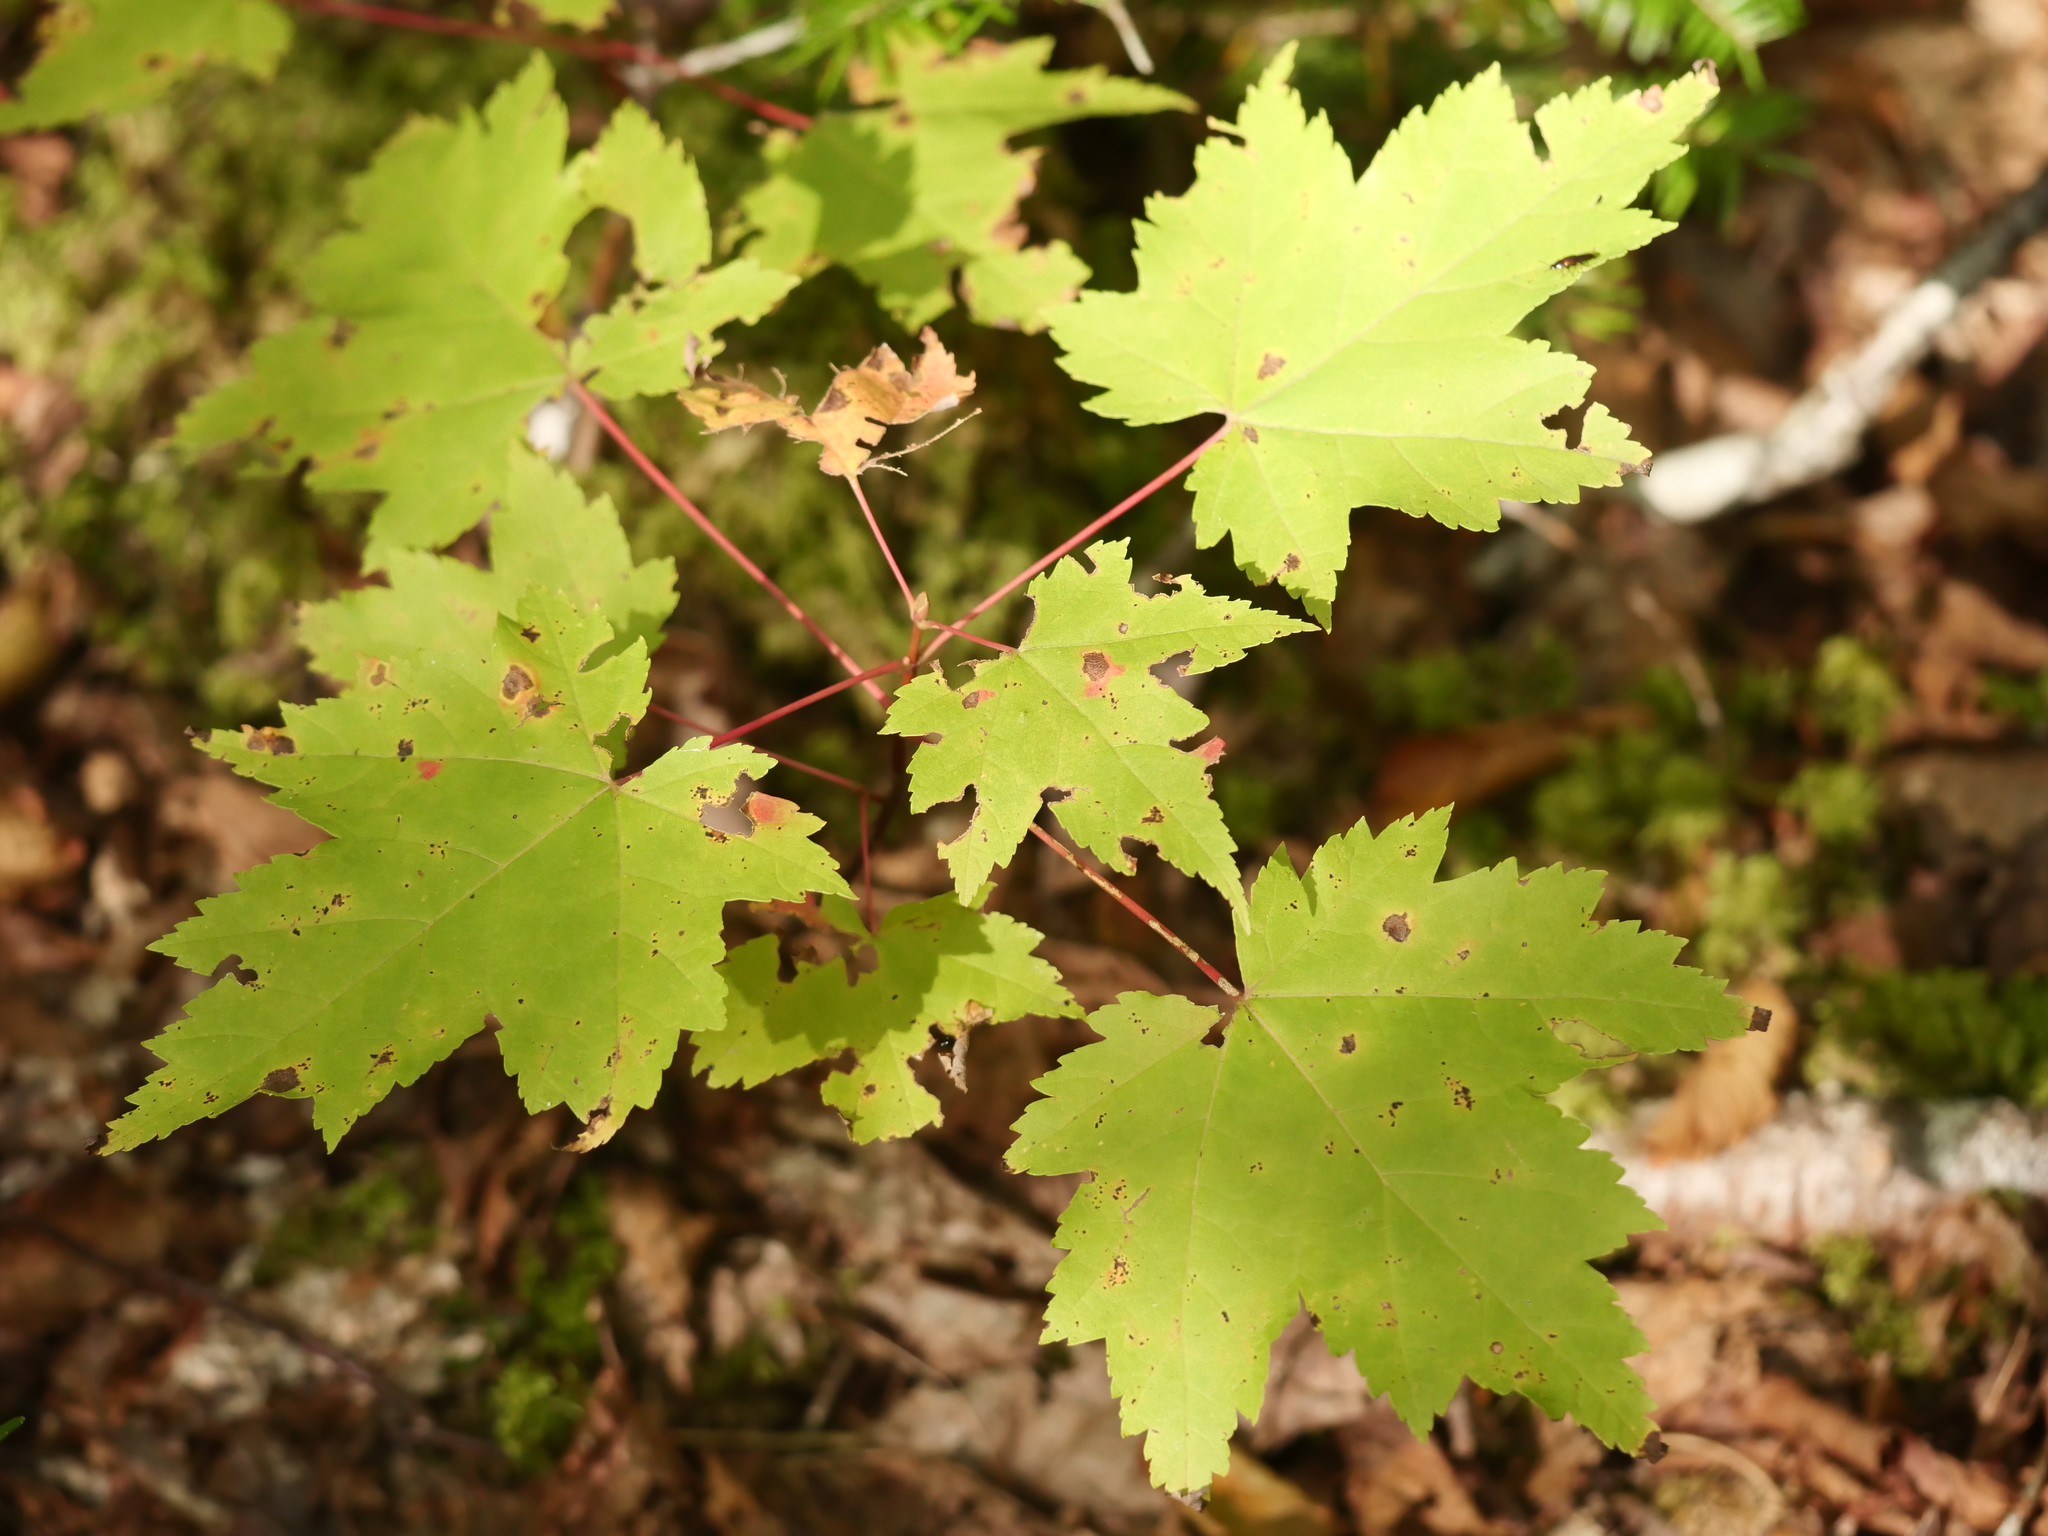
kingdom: Plantae
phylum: Tracheophyta
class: Magnoliopsida
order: Sapindales
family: Sapindaceae
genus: Acer
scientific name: Acer rubrum
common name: Red maple
